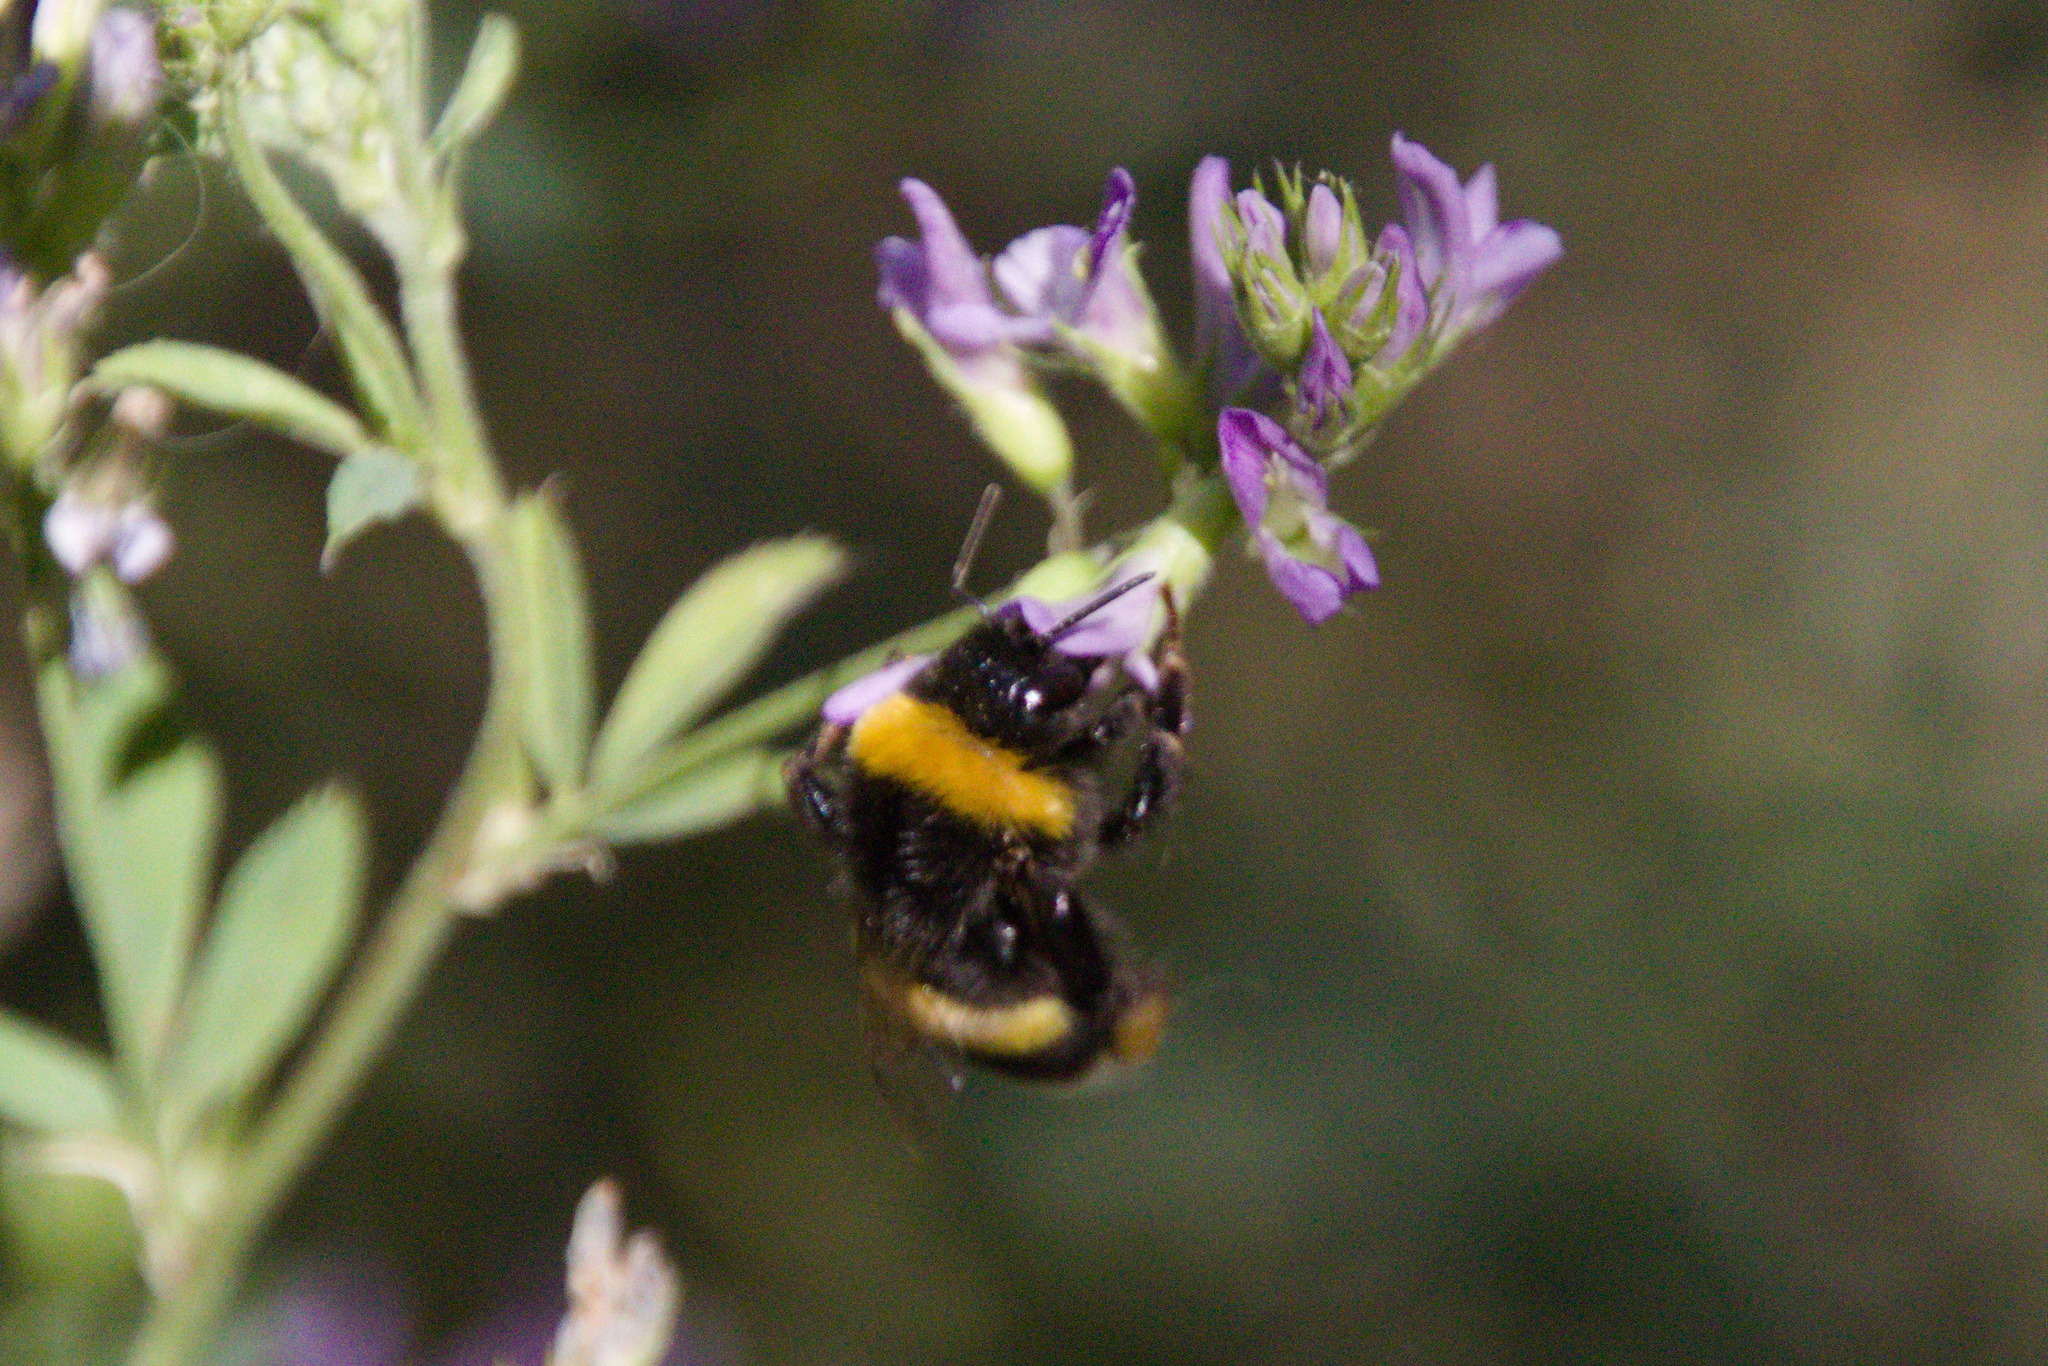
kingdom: Animalia
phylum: Arthropoda
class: Insecta
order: Hymenoptera
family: Apidae
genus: Bombus
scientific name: Bombus terrestris
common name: Buff-tailed bumblebee
